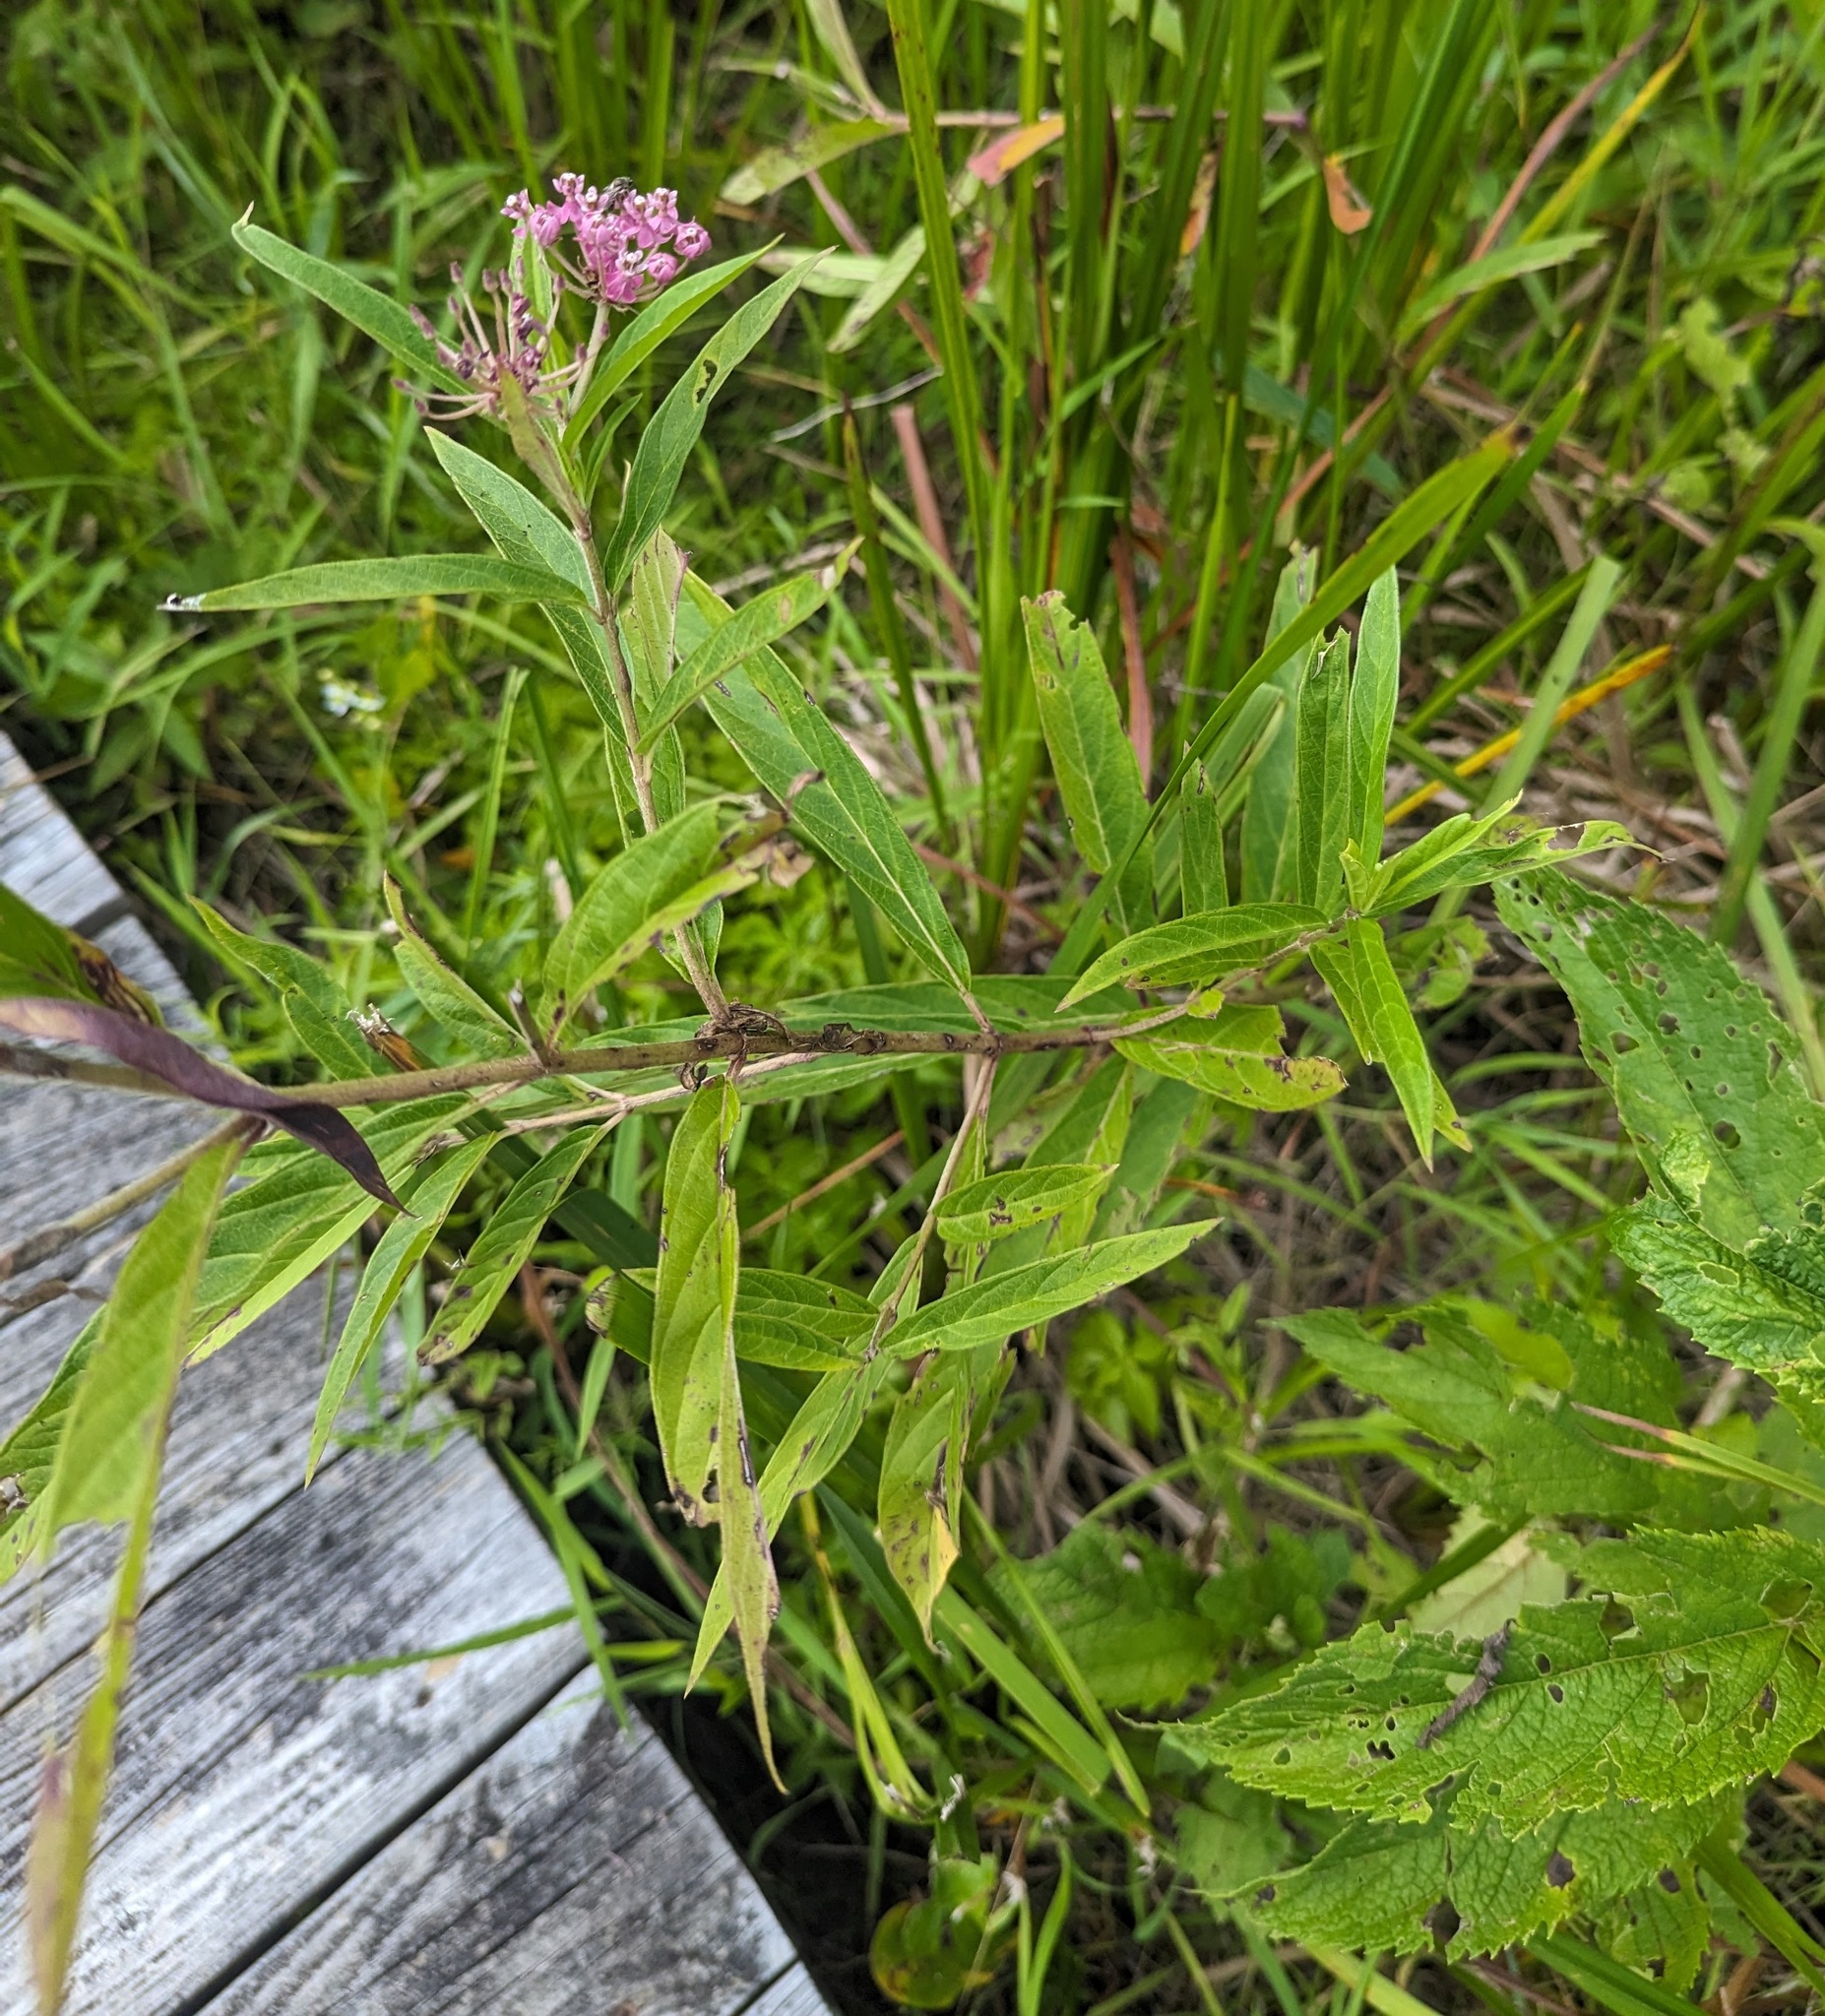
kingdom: Plantae
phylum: Tracheophyta
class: Magnoliopsida
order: Gentianales
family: Apocynaceae
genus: Asclepias
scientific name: Asclepias incarnata
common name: Swamp milkweed
